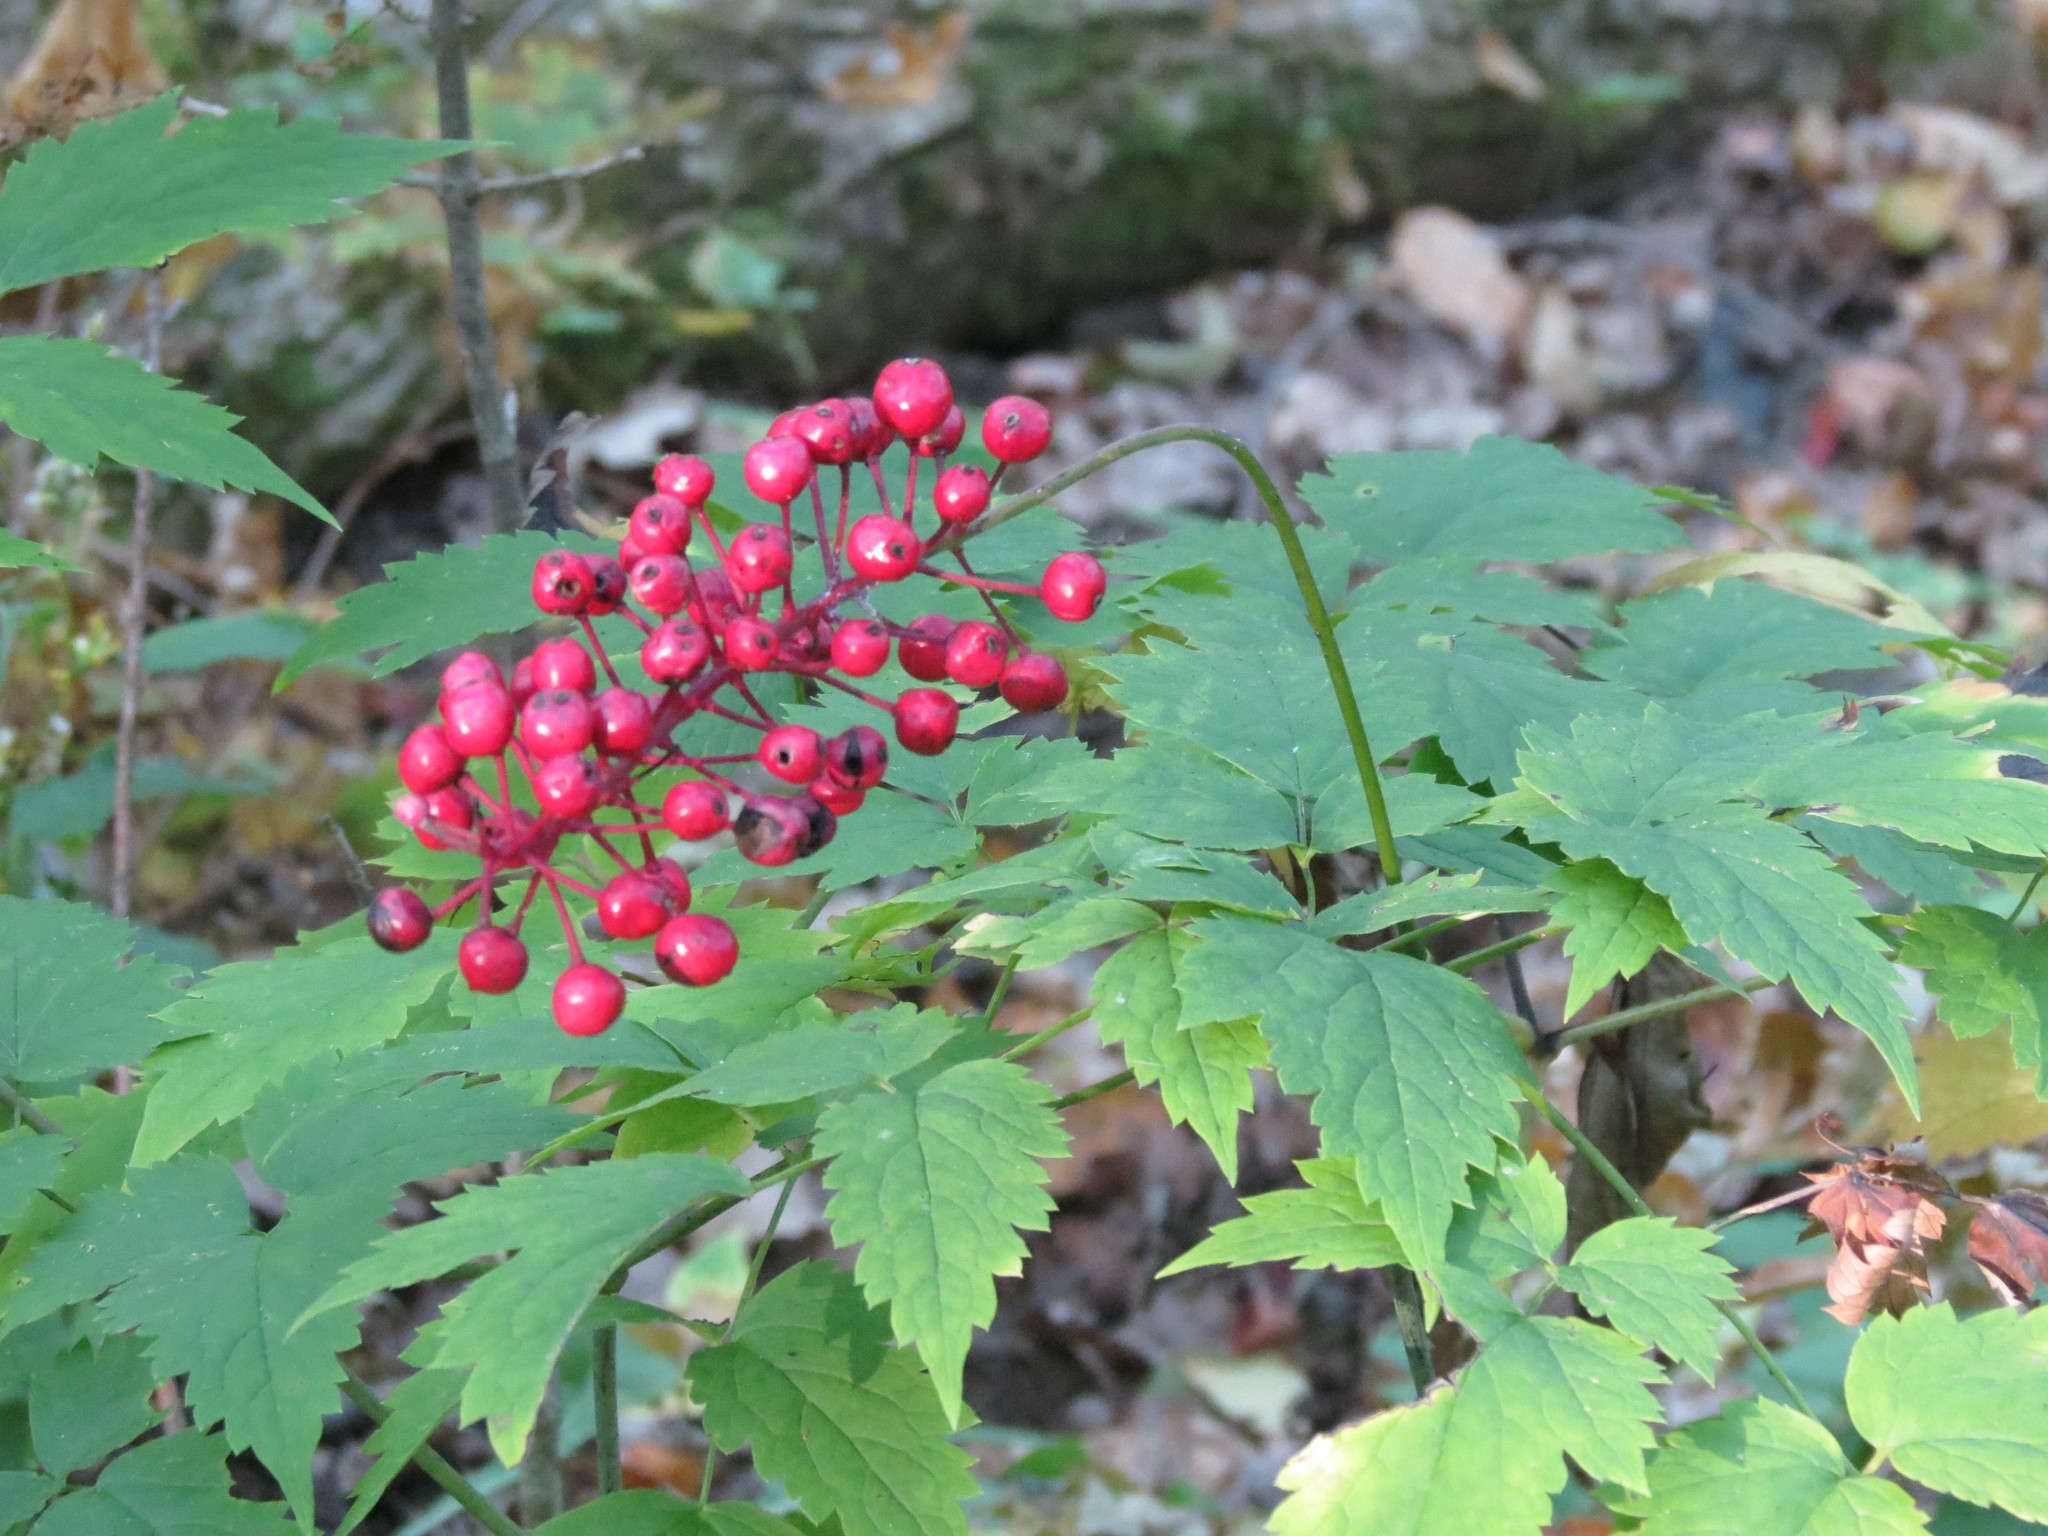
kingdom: Plantae
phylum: Tracheophyta
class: Magnoliopsida
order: Ranunculales
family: Ranunculaceae
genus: Actaea
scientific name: Actaea rubra
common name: Red baneberry
